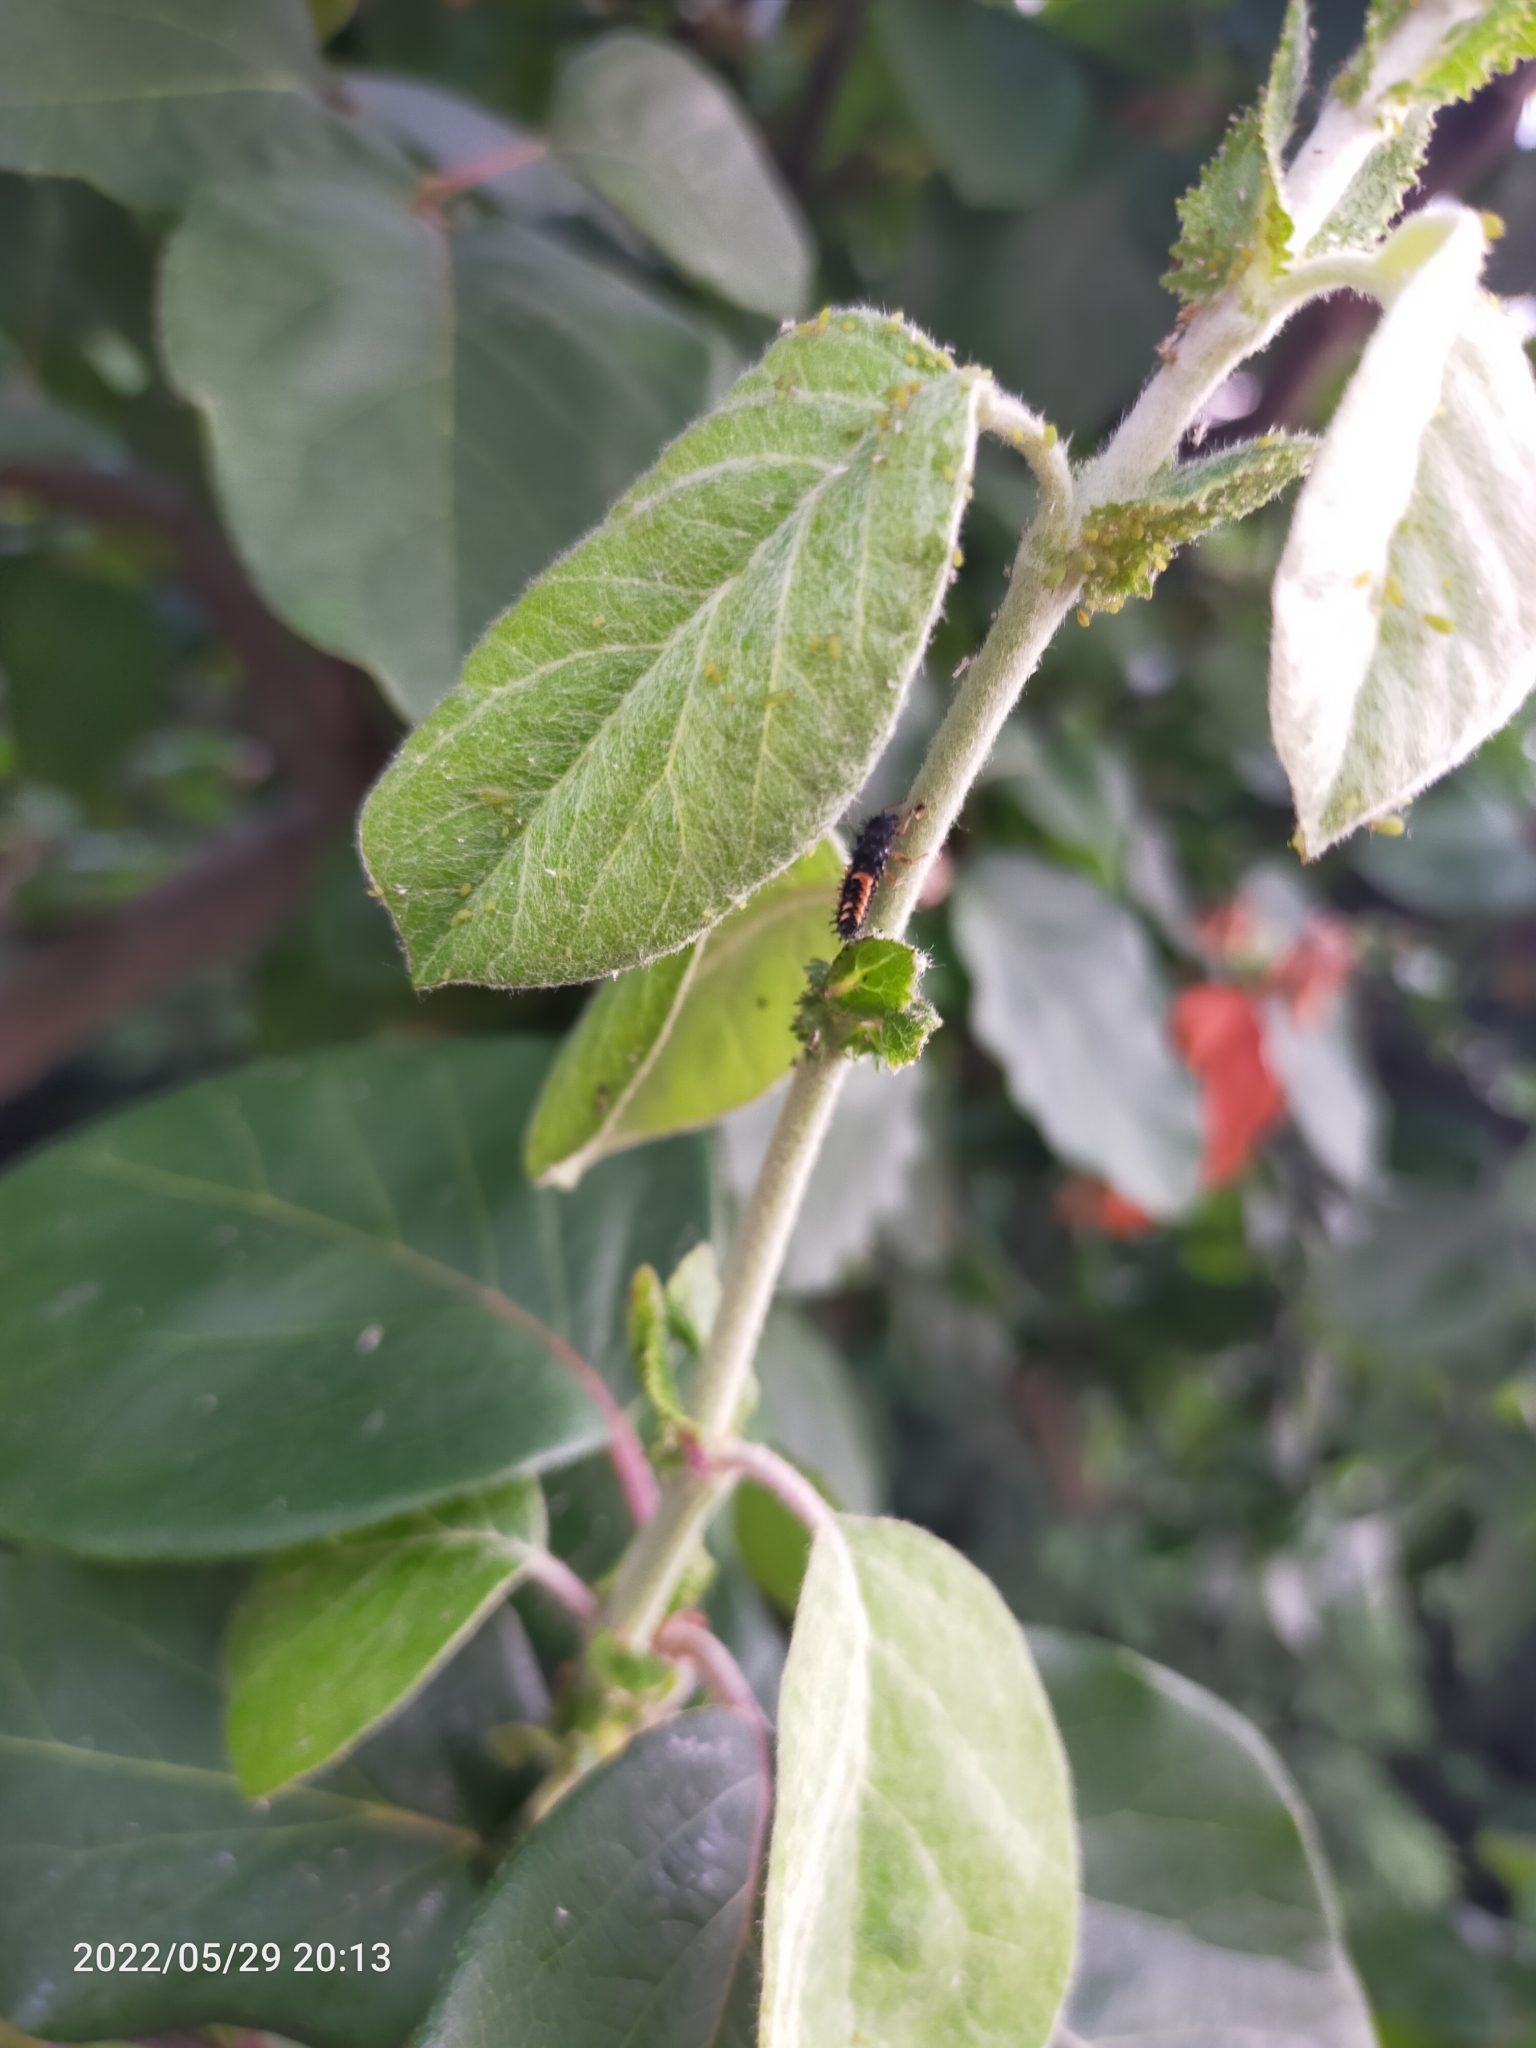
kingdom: Animalia
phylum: Arthropoda
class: Insecta
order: Coleoptera
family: Coccinellidae
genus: Harmonia
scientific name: Harmonia axyridis
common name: Harlequin ladybird
